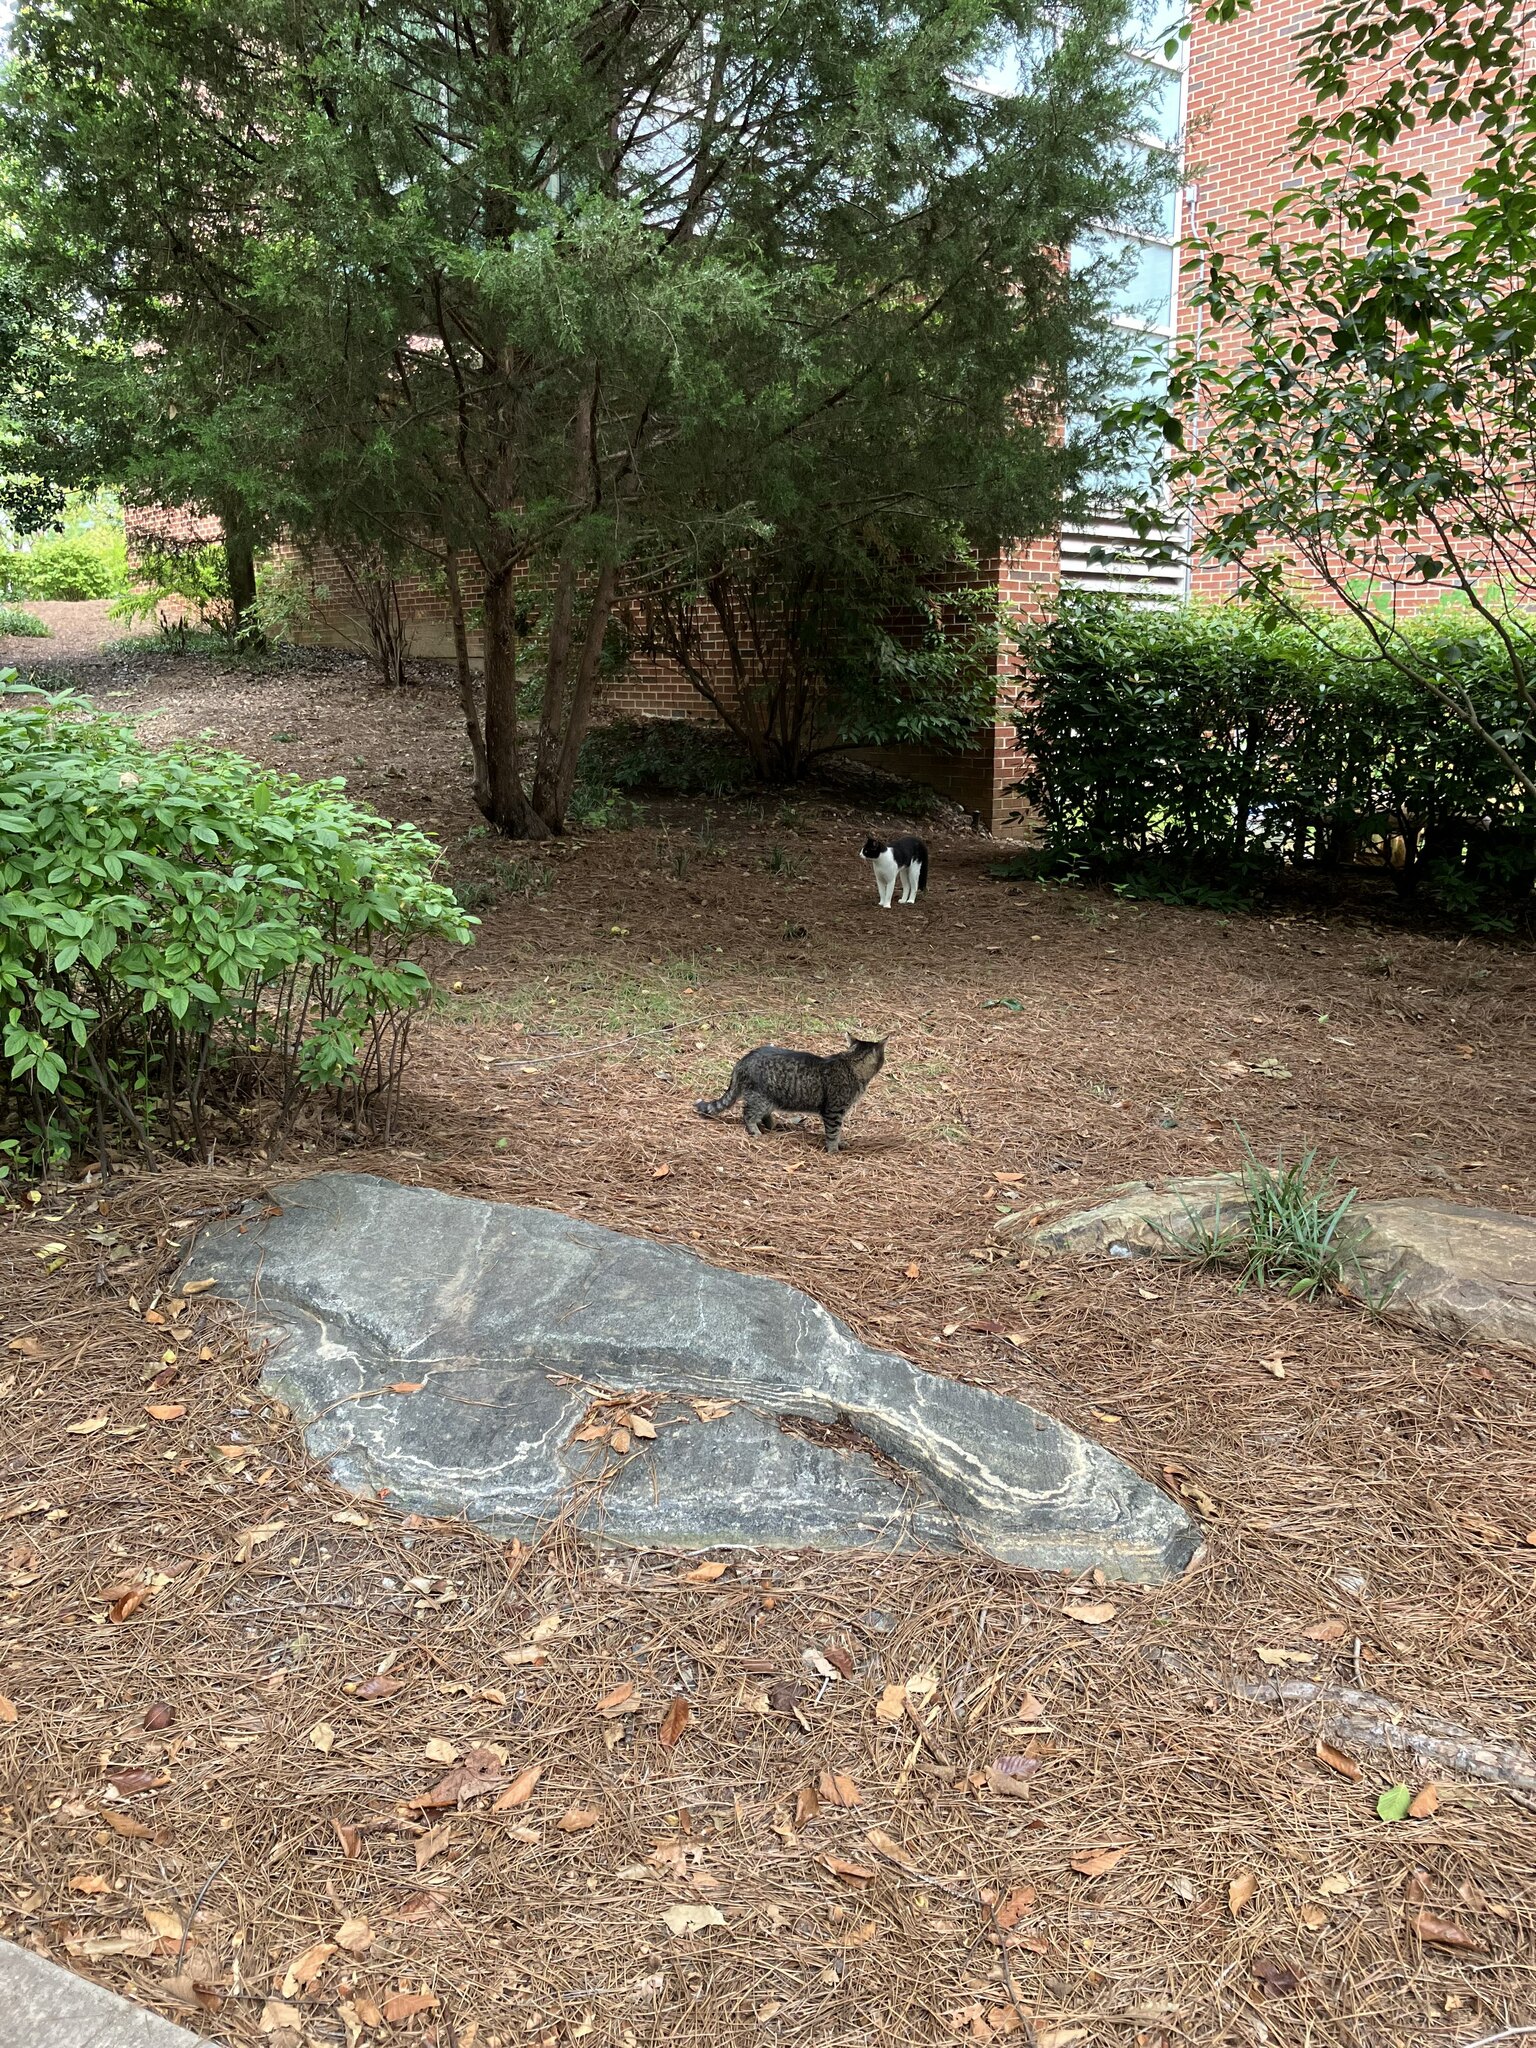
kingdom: Animalia
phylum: Chordata
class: Mammalia
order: Carnivora
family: Felidae
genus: Felis
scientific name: Felis catus
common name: Domestic cat
